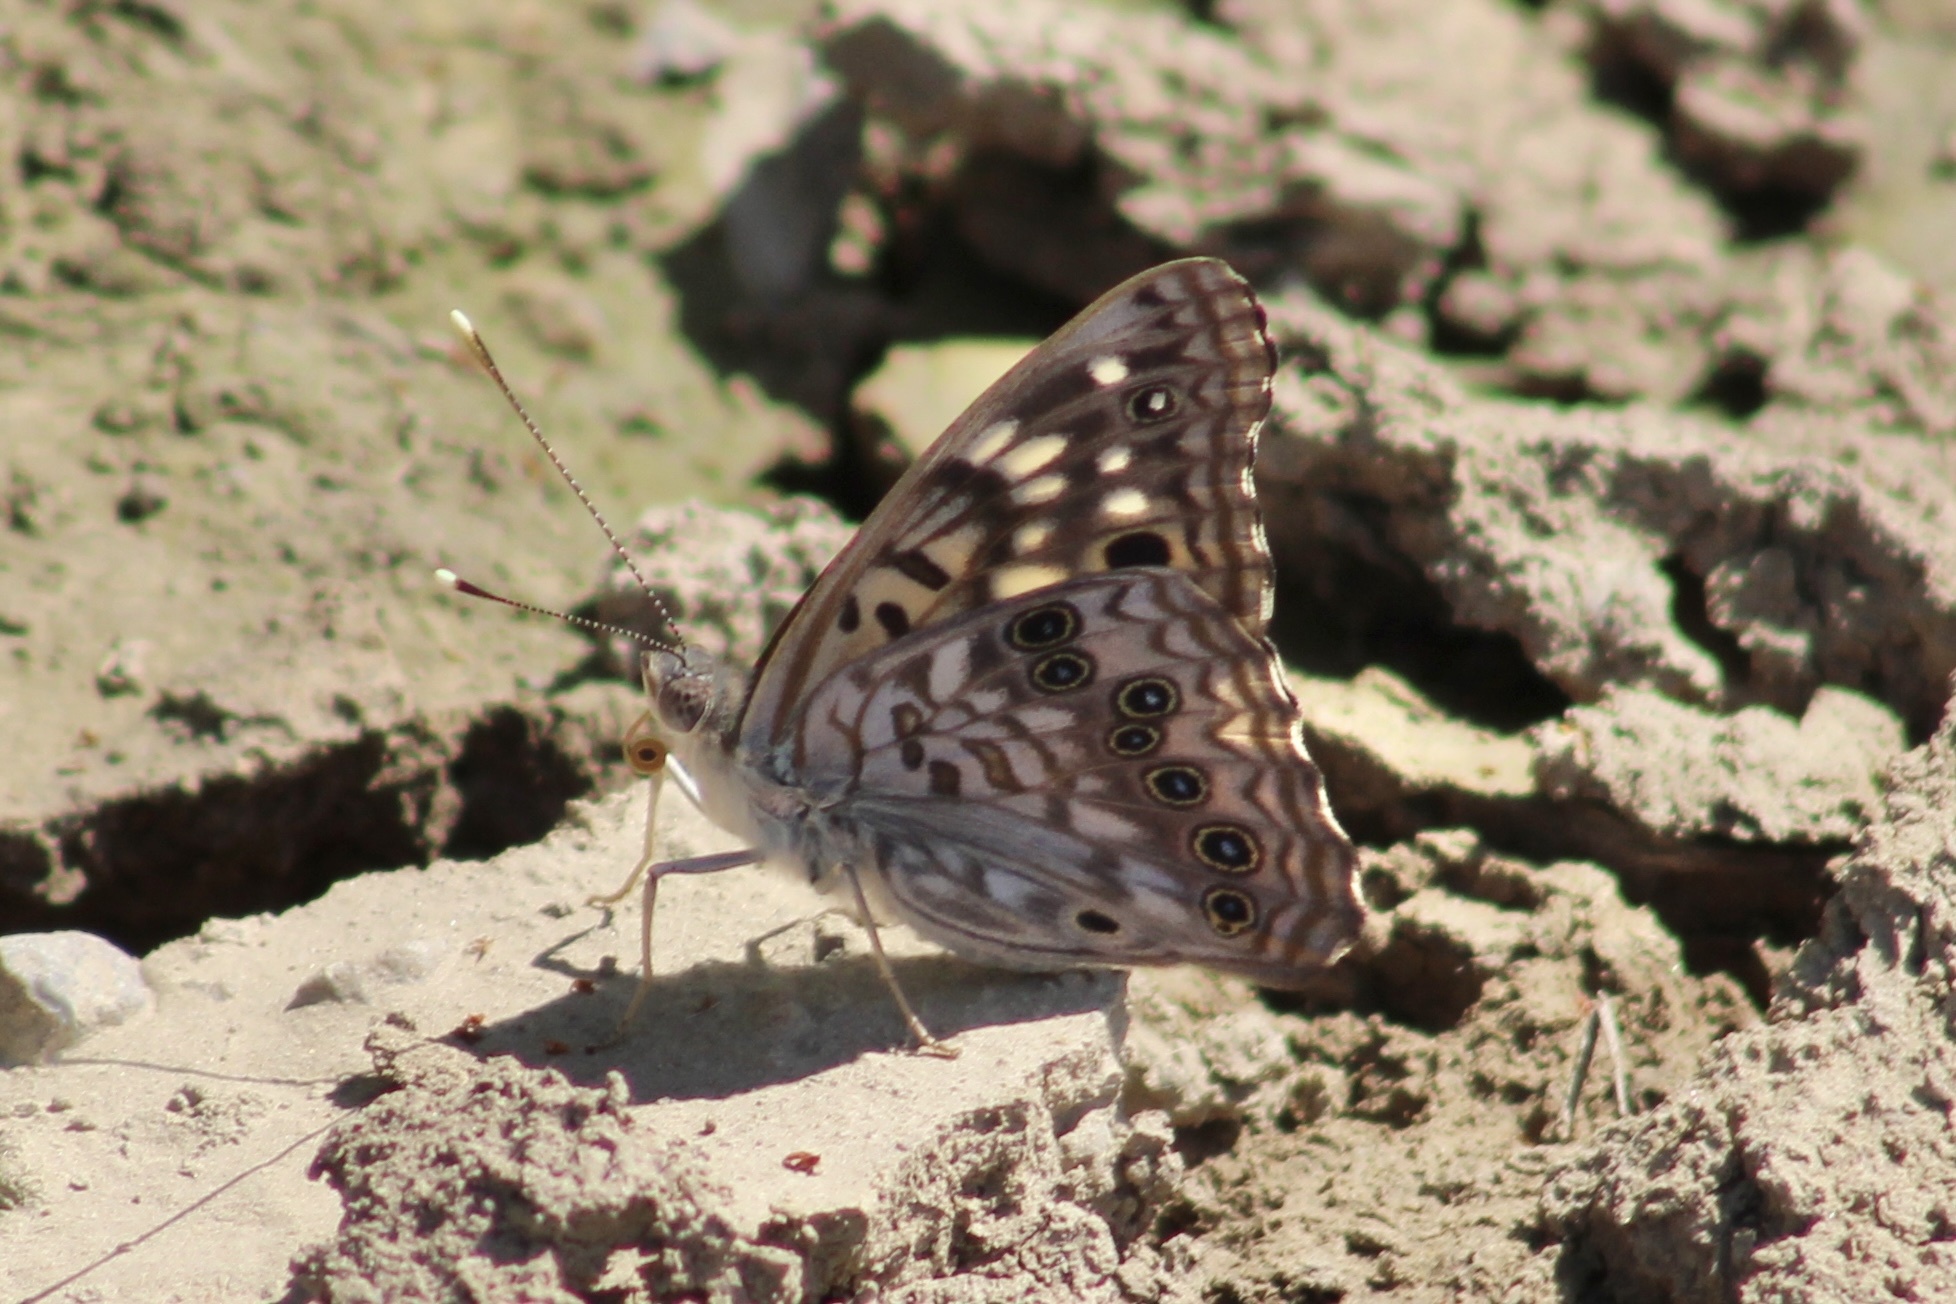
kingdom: Animalia
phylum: Arthropoda
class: Insecta
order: Lepidoptera
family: Nymphalidae
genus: Asterocampa
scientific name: Asterocampa celtis
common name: Hackberry emperor
